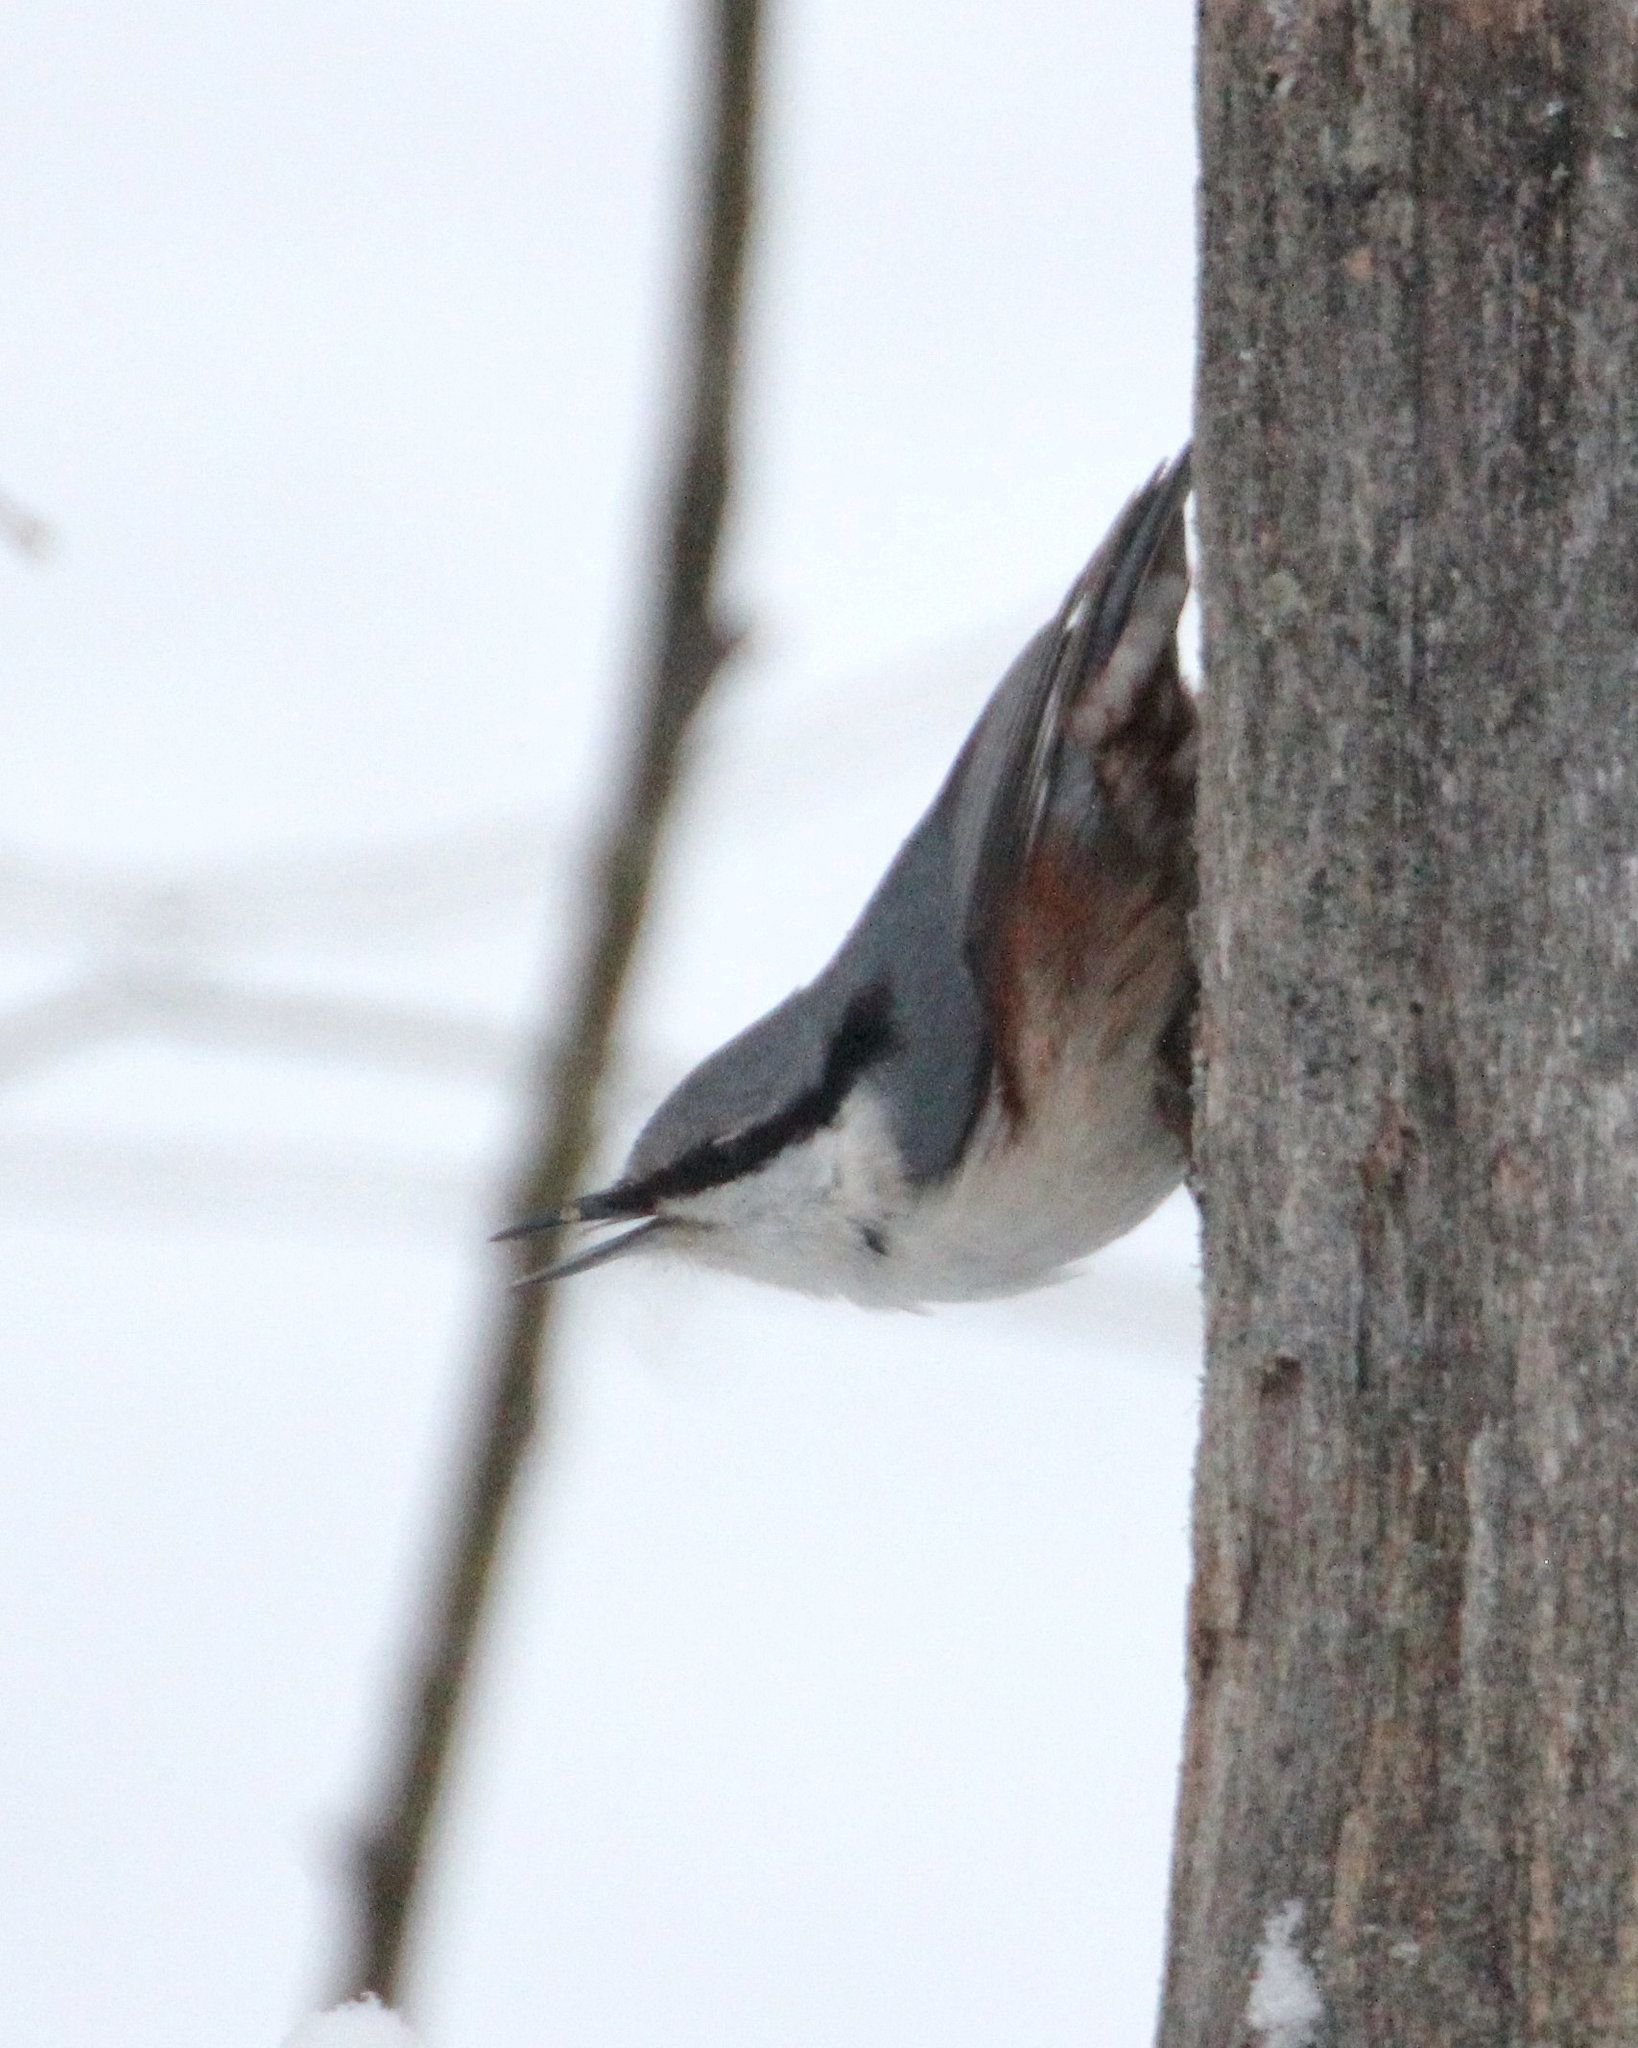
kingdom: Animalia
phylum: Chordata
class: Aves
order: Passeriformes
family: Sittidae
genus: Sitta
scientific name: Sitta europaea
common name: Eurasian nuthatch
